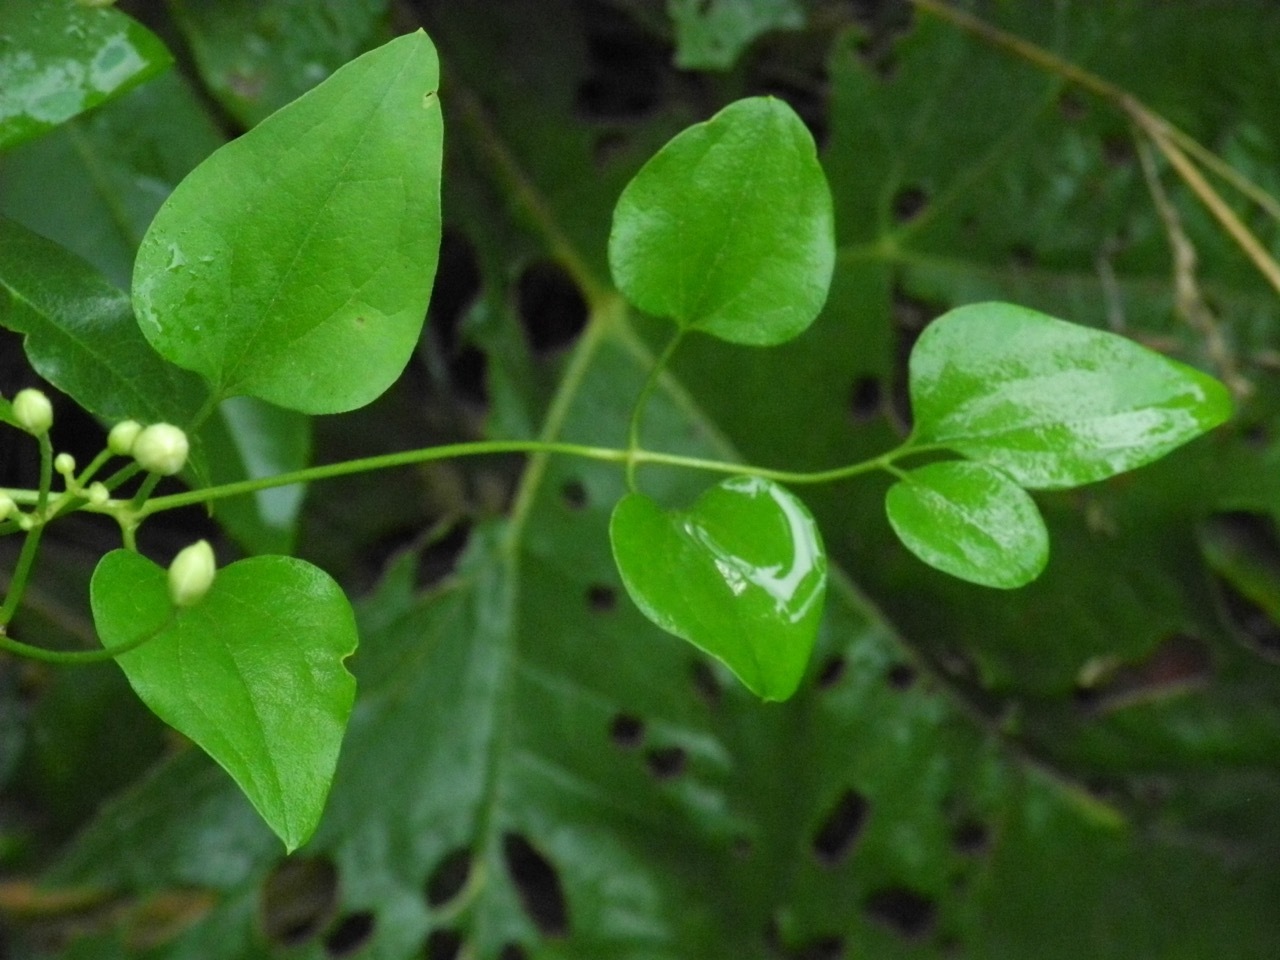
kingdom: Plantae
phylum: Tracheophyta
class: Magnoliopsida
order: Ranunculales
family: Ranunculaceae
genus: Clematis
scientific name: Clematis terniflora
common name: Sweet autumn clematis
